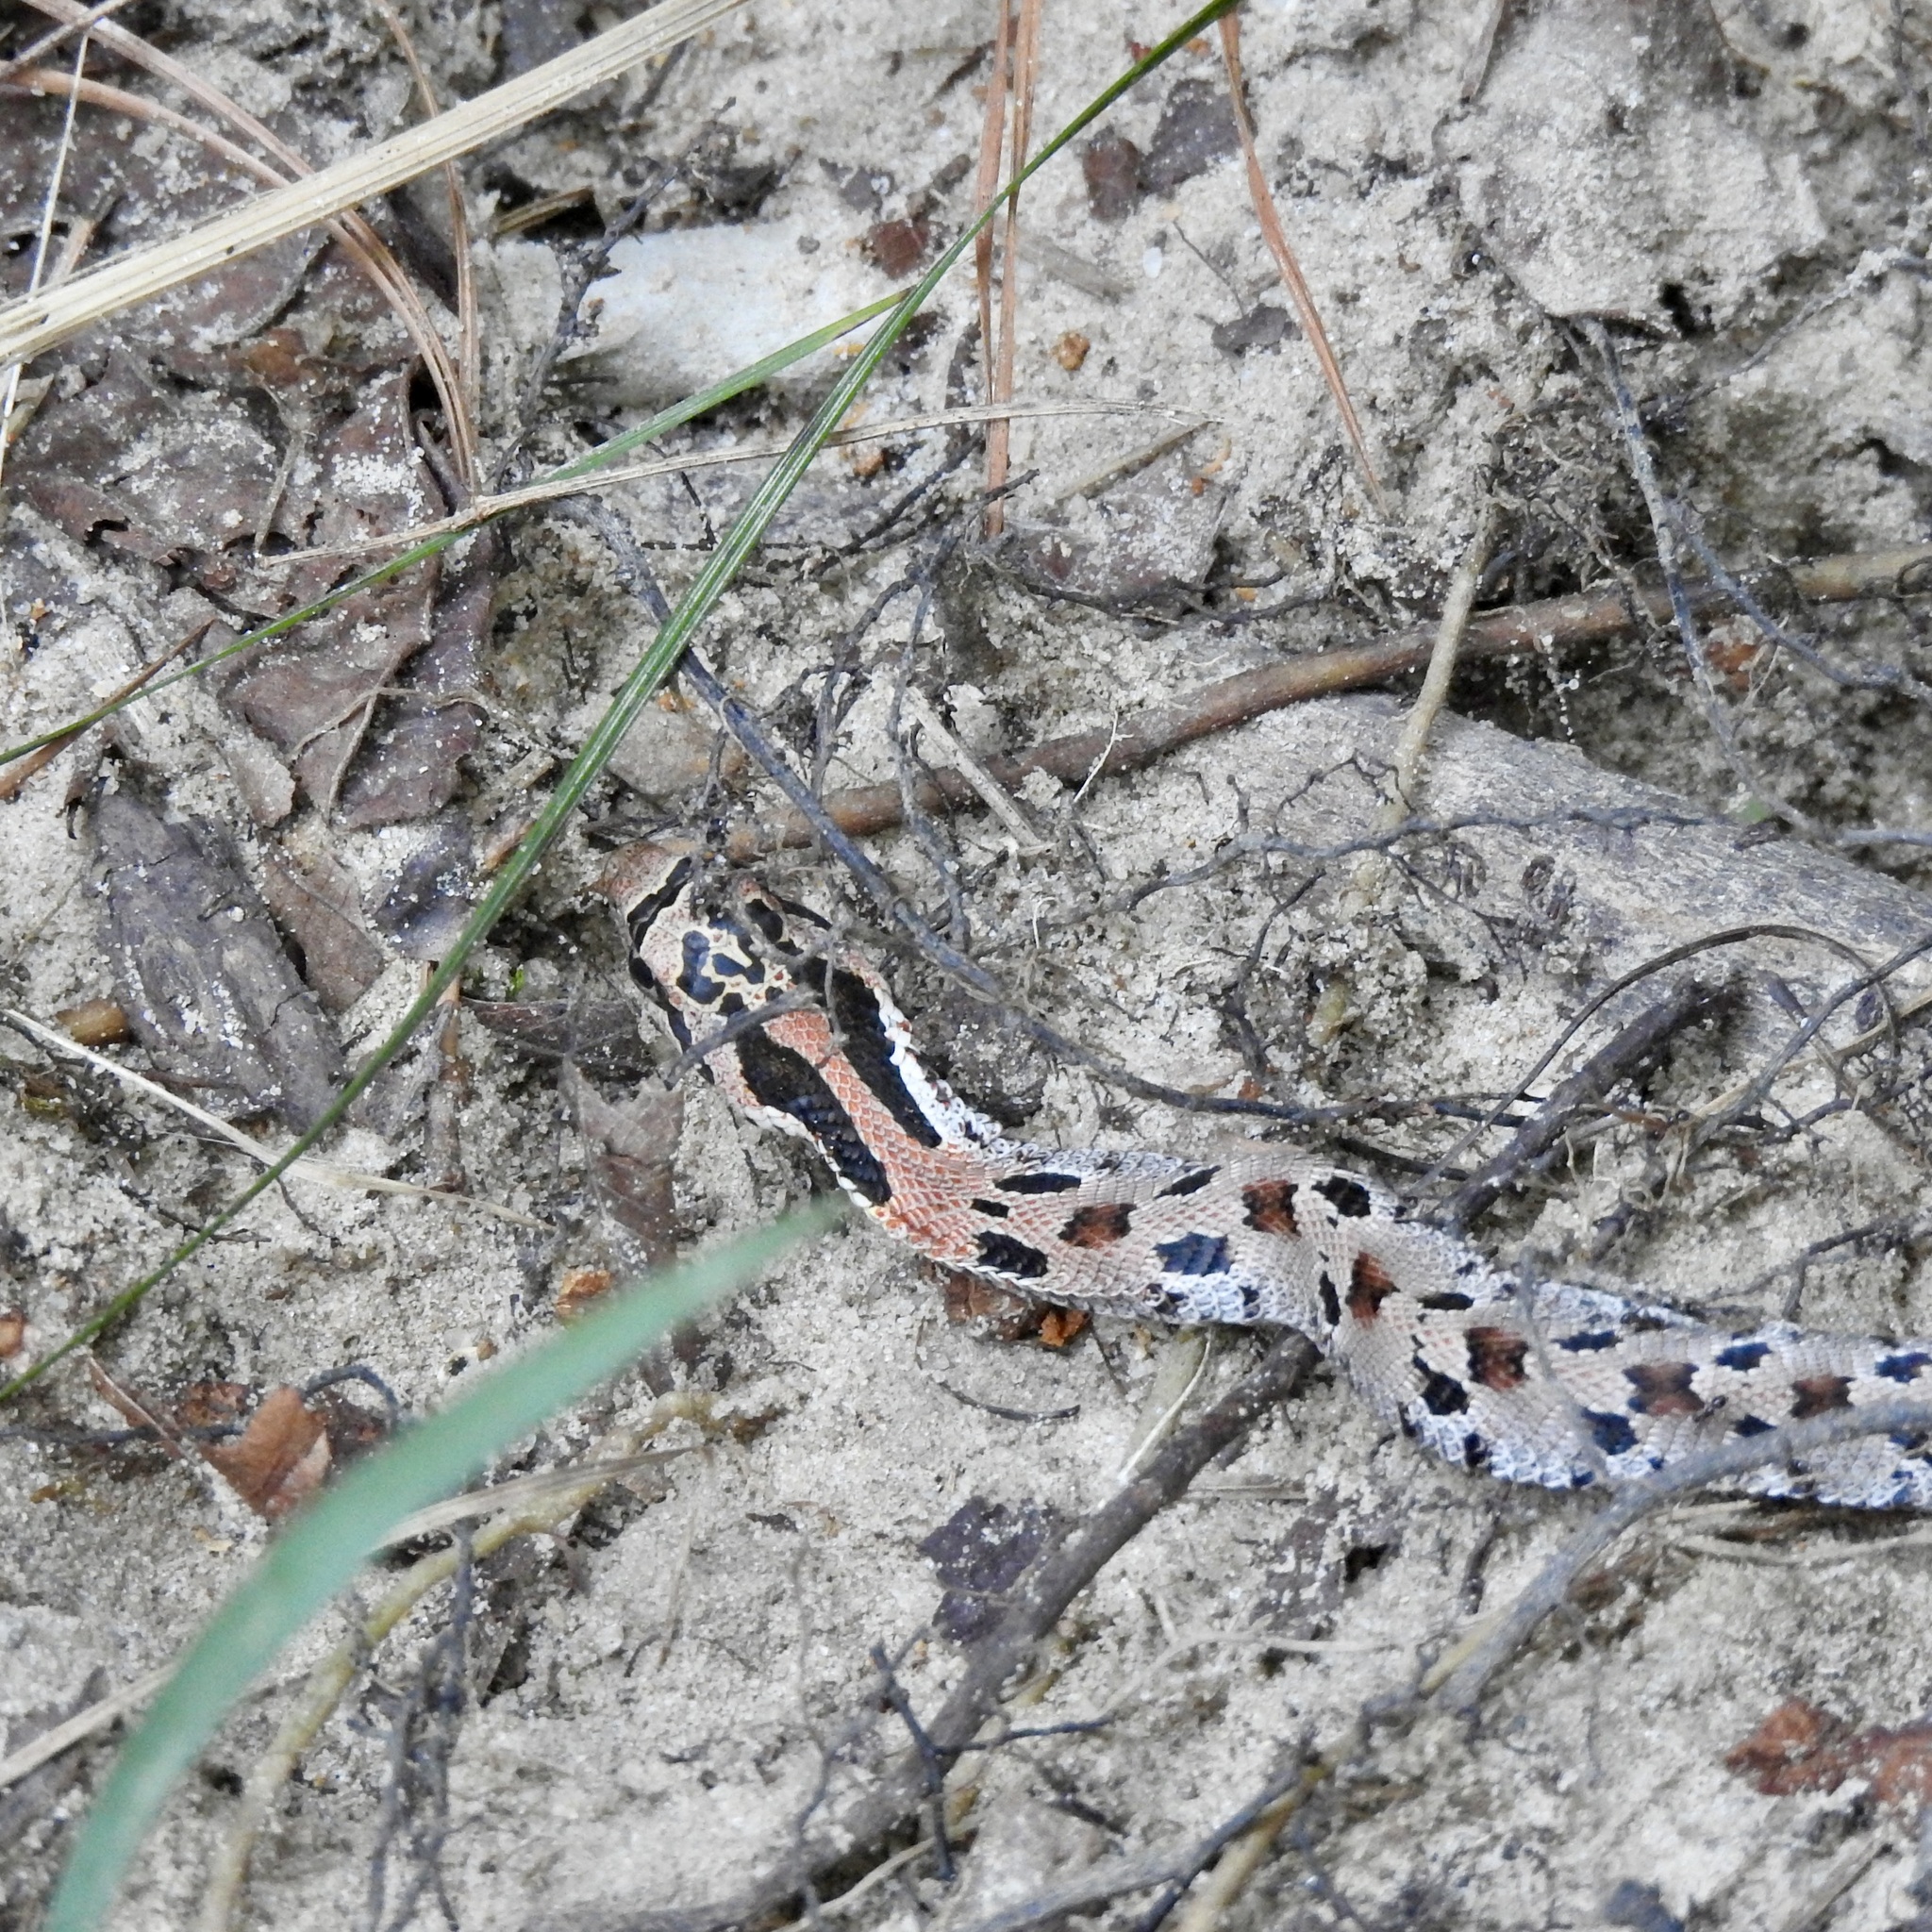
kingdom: Animalia
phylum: Chordata
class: Squamata
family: Colubridae
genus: Heterodon
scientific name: Heterodon platirhinos
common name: Eastern hognose snake
